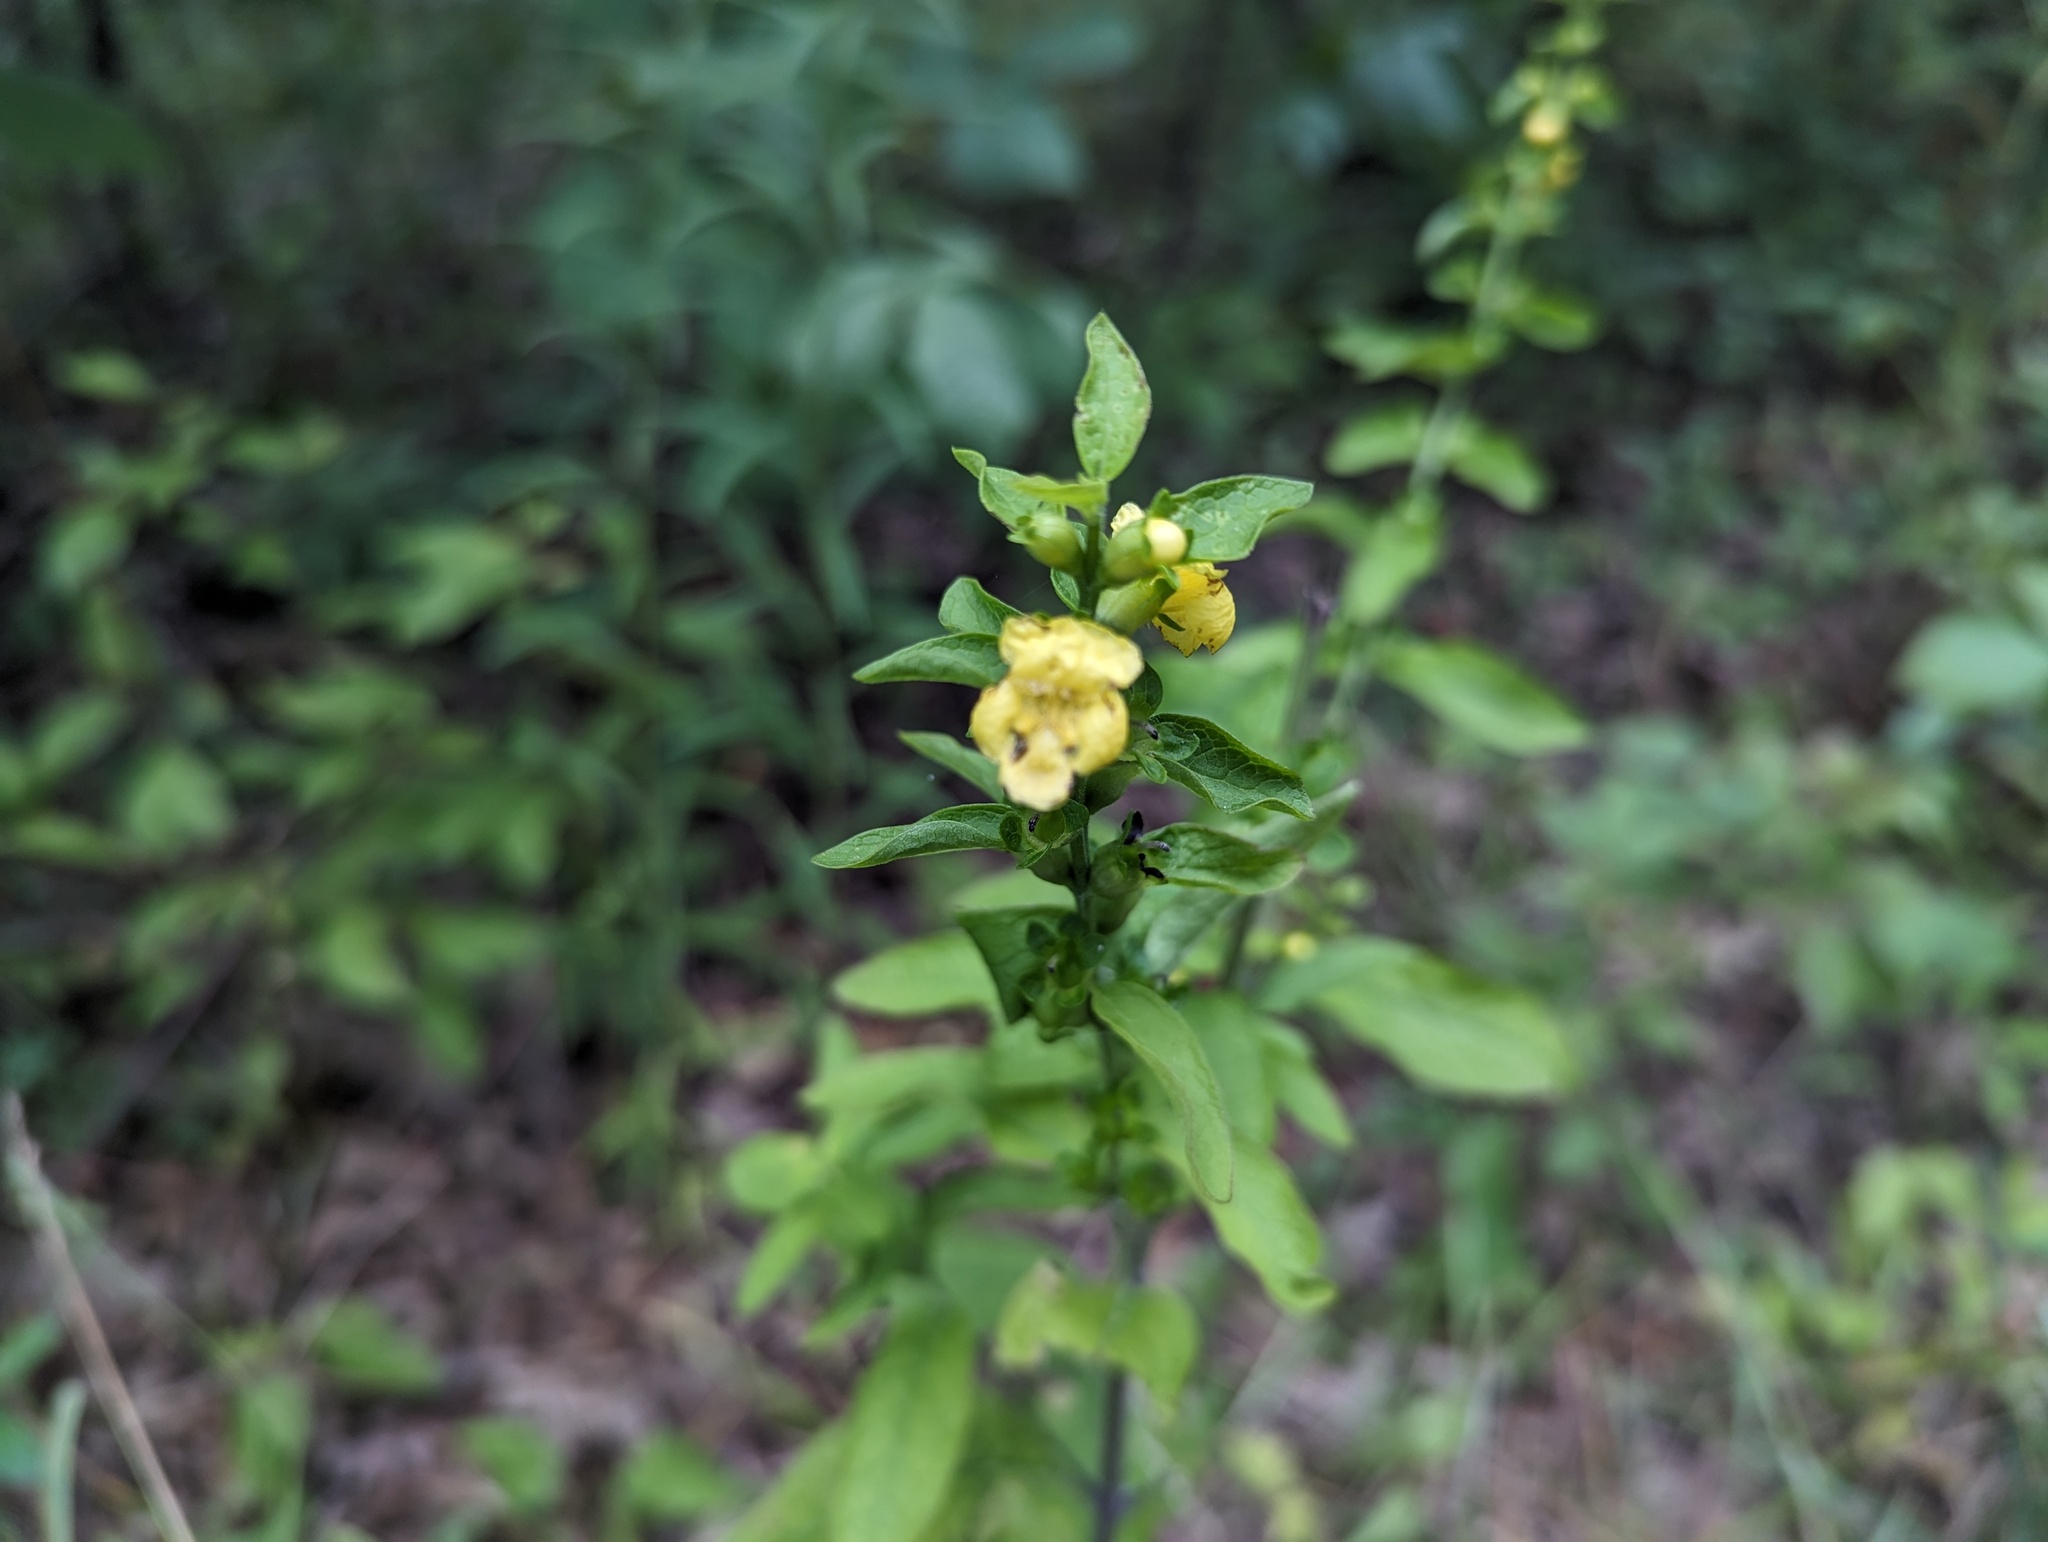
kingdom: Plantae
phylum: Tracheophyta
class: Magnoliopsida
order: Lamiales
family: Orobanchaceae
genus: Dasistoma
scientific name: Dasistoma macrophyllum
